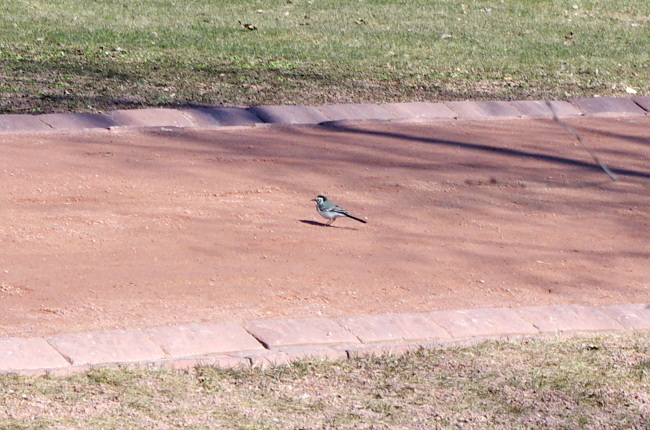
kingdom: Animalia
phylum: Chordata
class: Aves
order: Passeriformes
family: Motacillidae
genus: Motacilla
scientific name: Motacilla alba
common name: White wagtail
